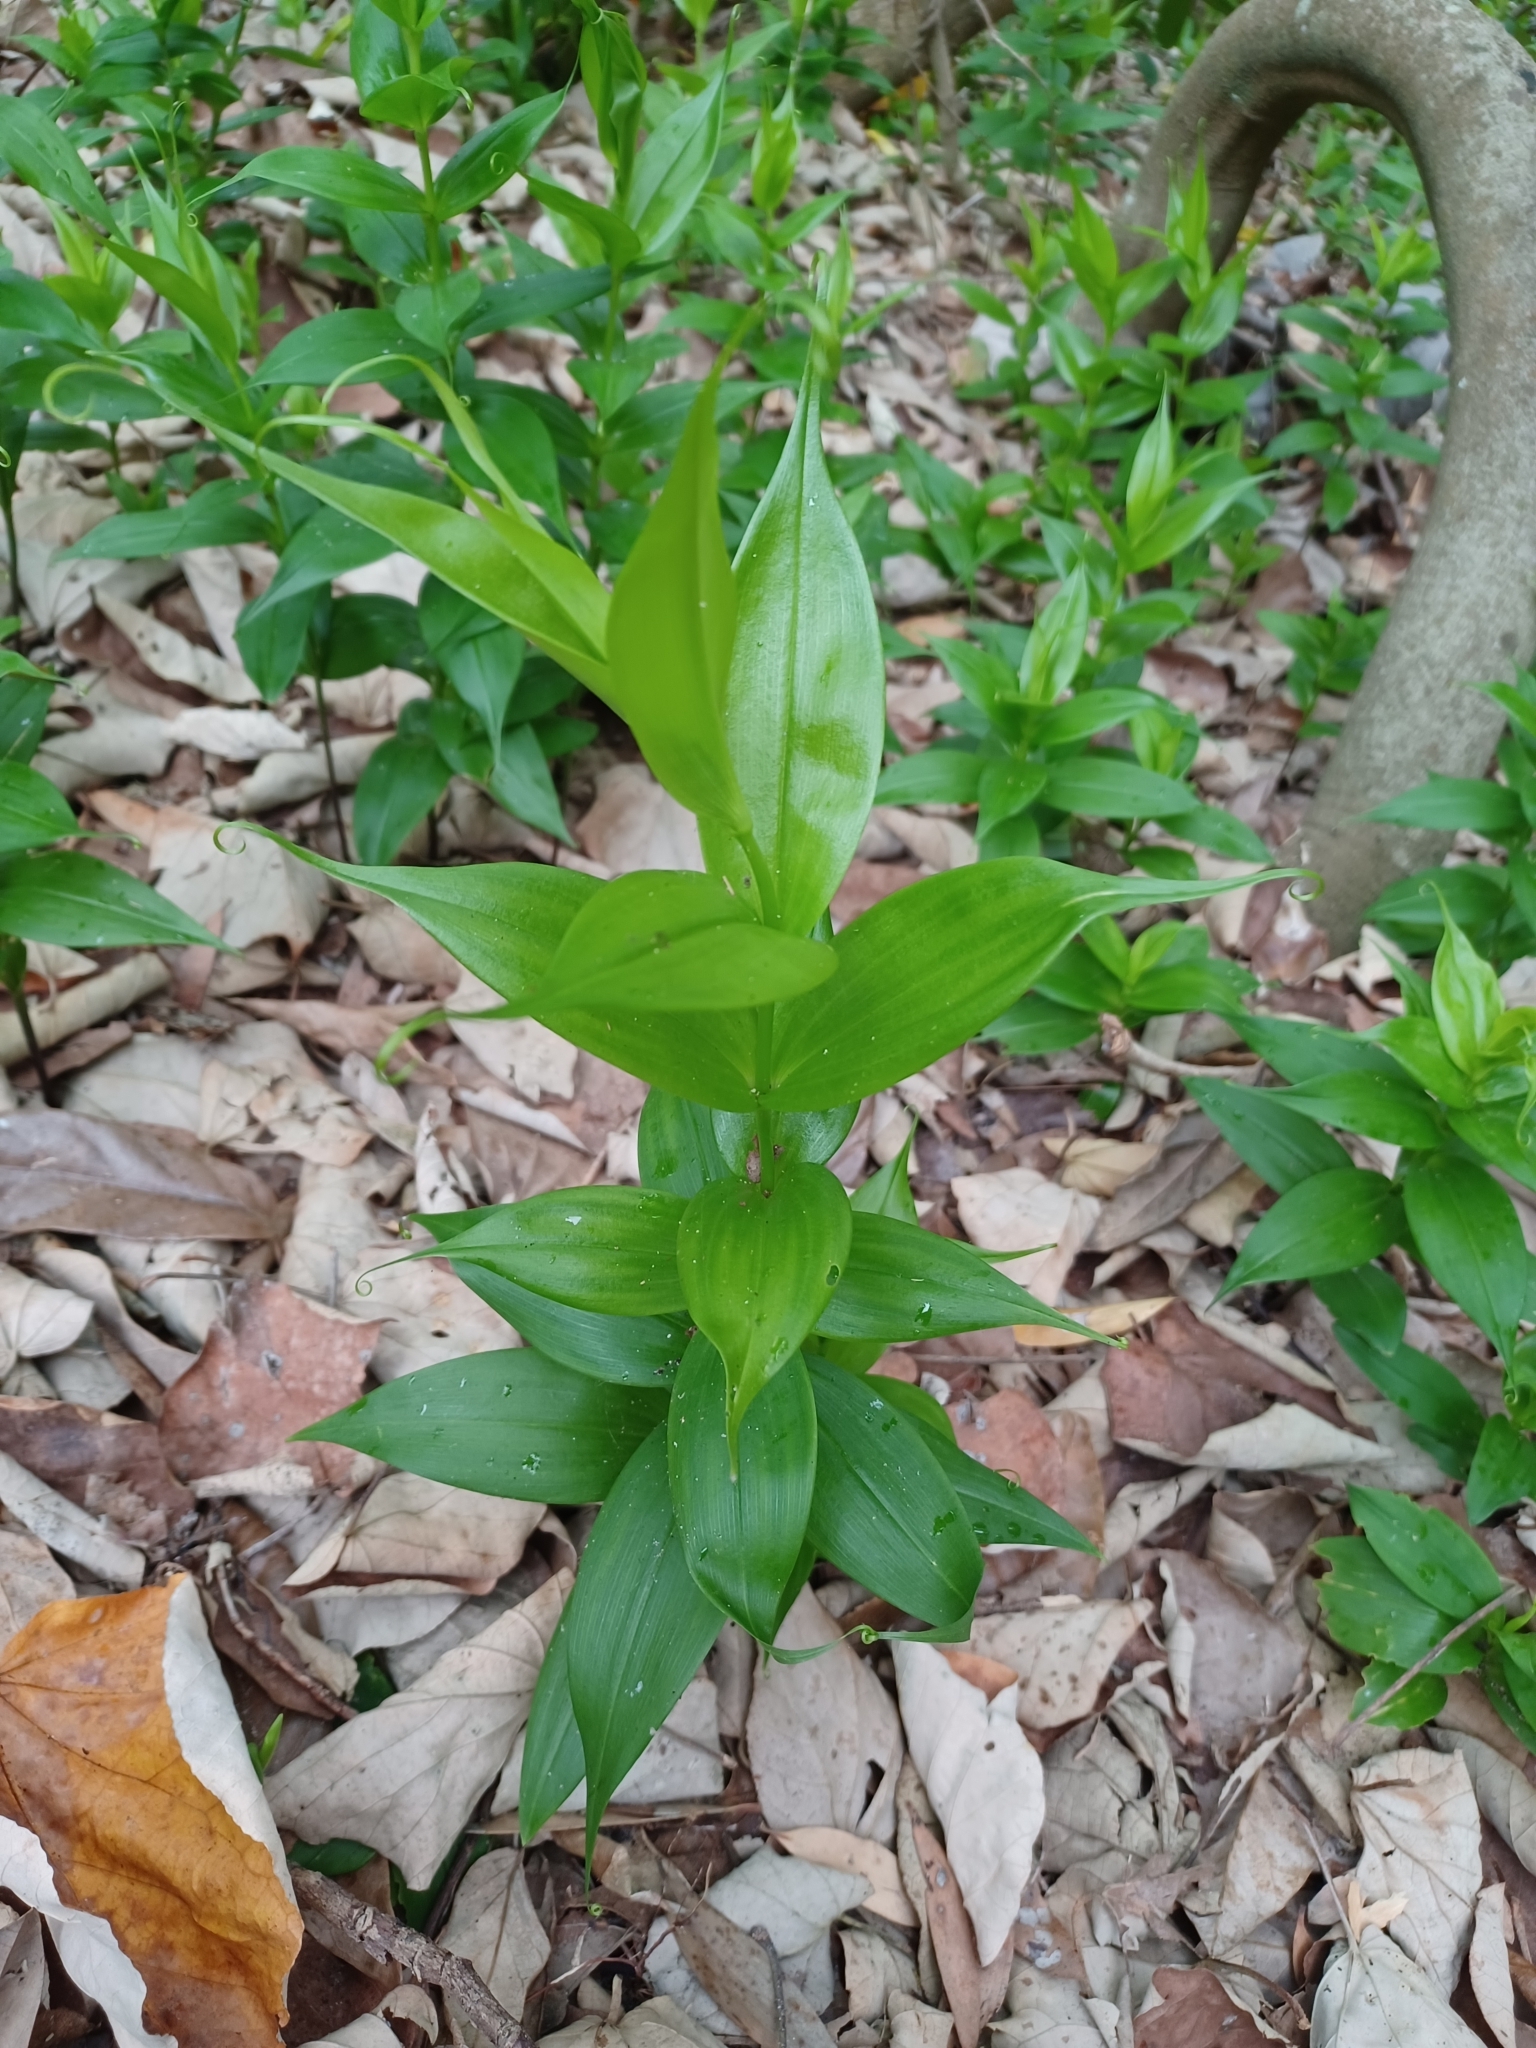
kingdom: Plantae
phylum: Tracheophyta
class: Liliopsida
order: Liliales
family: Colchicaceae
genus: Gloriosa
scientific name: Gloriosa superba
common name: Flame lily
